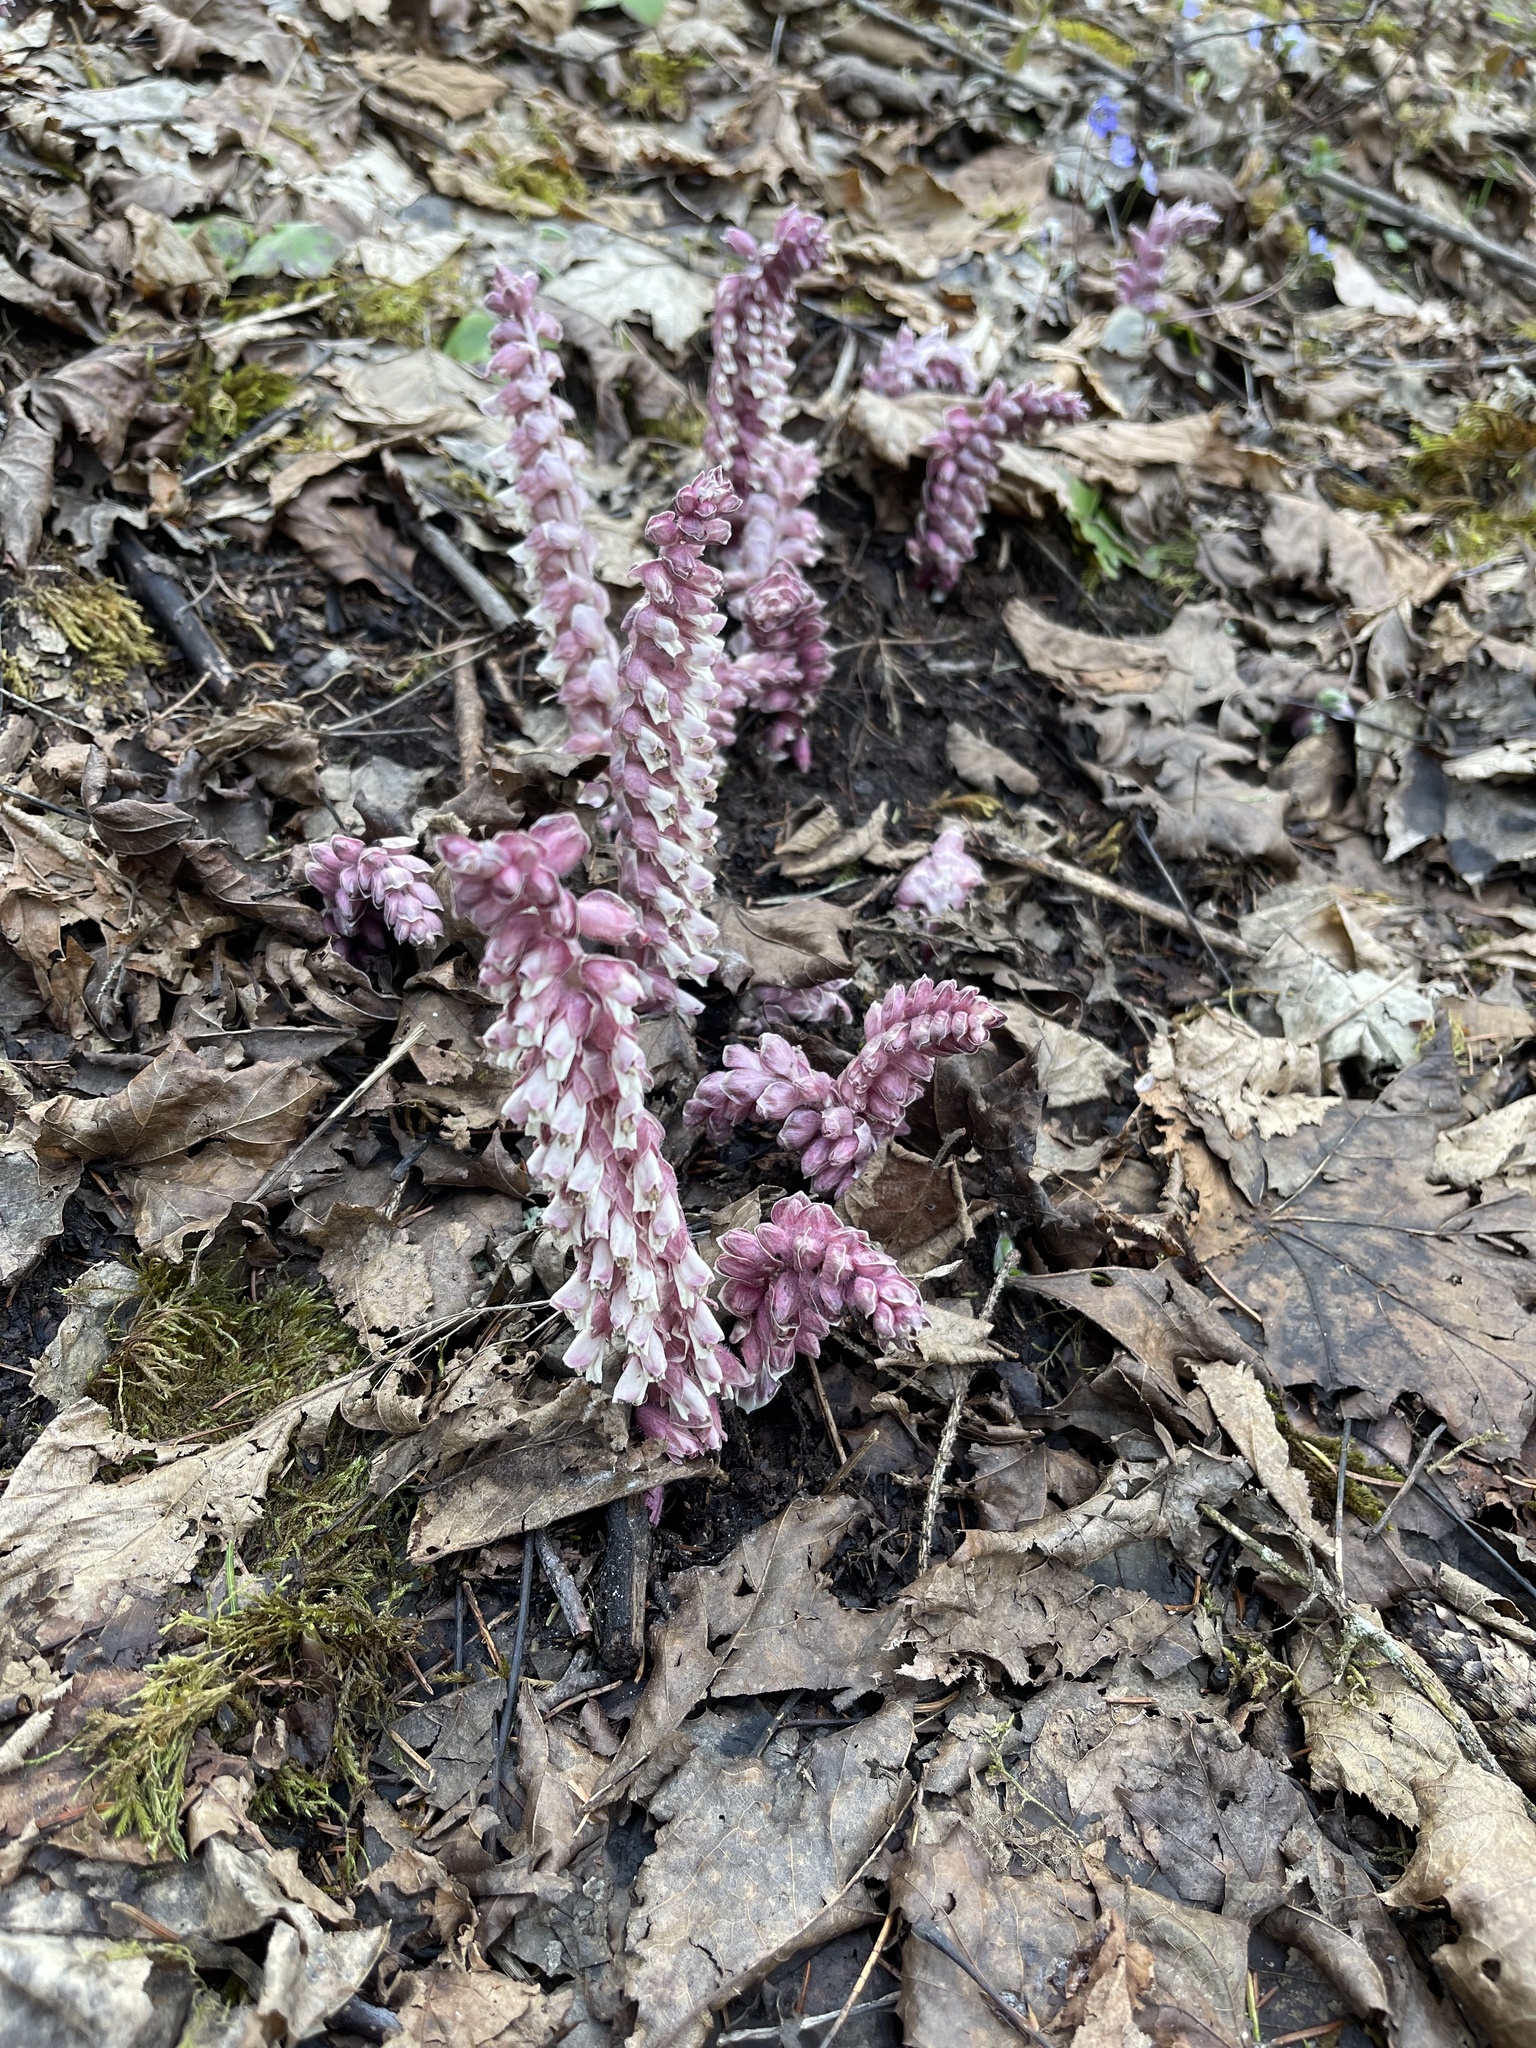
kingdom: Plantae
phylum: Tracheophyta
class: Magnoliopsida
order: Lamiales
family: Orobanchaceae
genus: Lathraea
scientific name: Lathraea squamaria
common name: Toothwort
